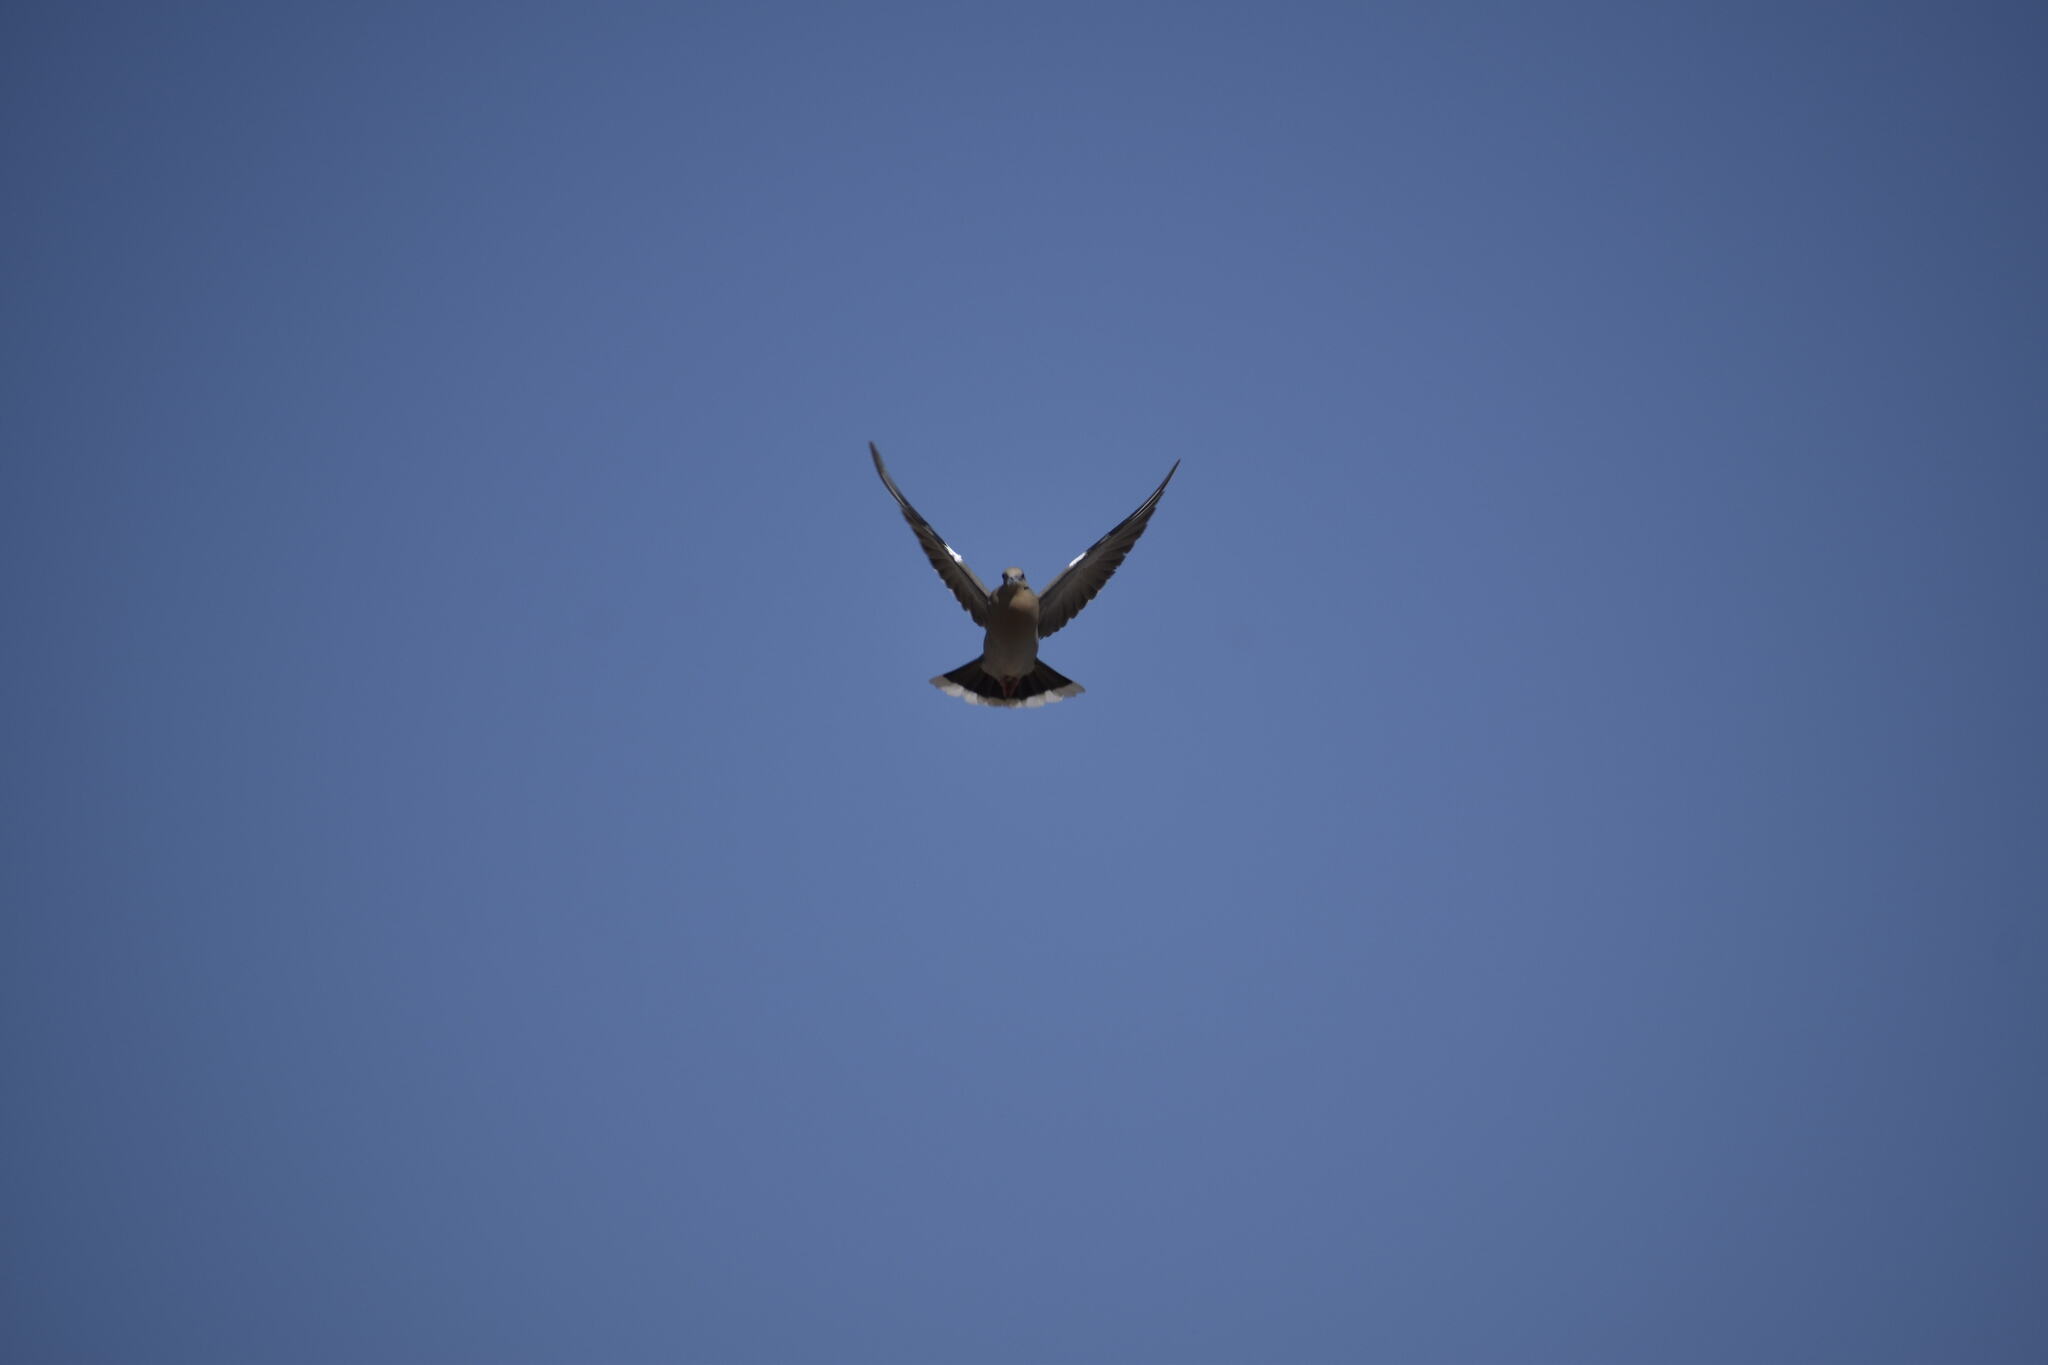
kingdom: Animalia
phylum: Chordata
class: Aves
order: Columbiformes
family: Columbidae
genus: Zenaida
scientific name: Zenaida asiatica
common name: White-winged dove
